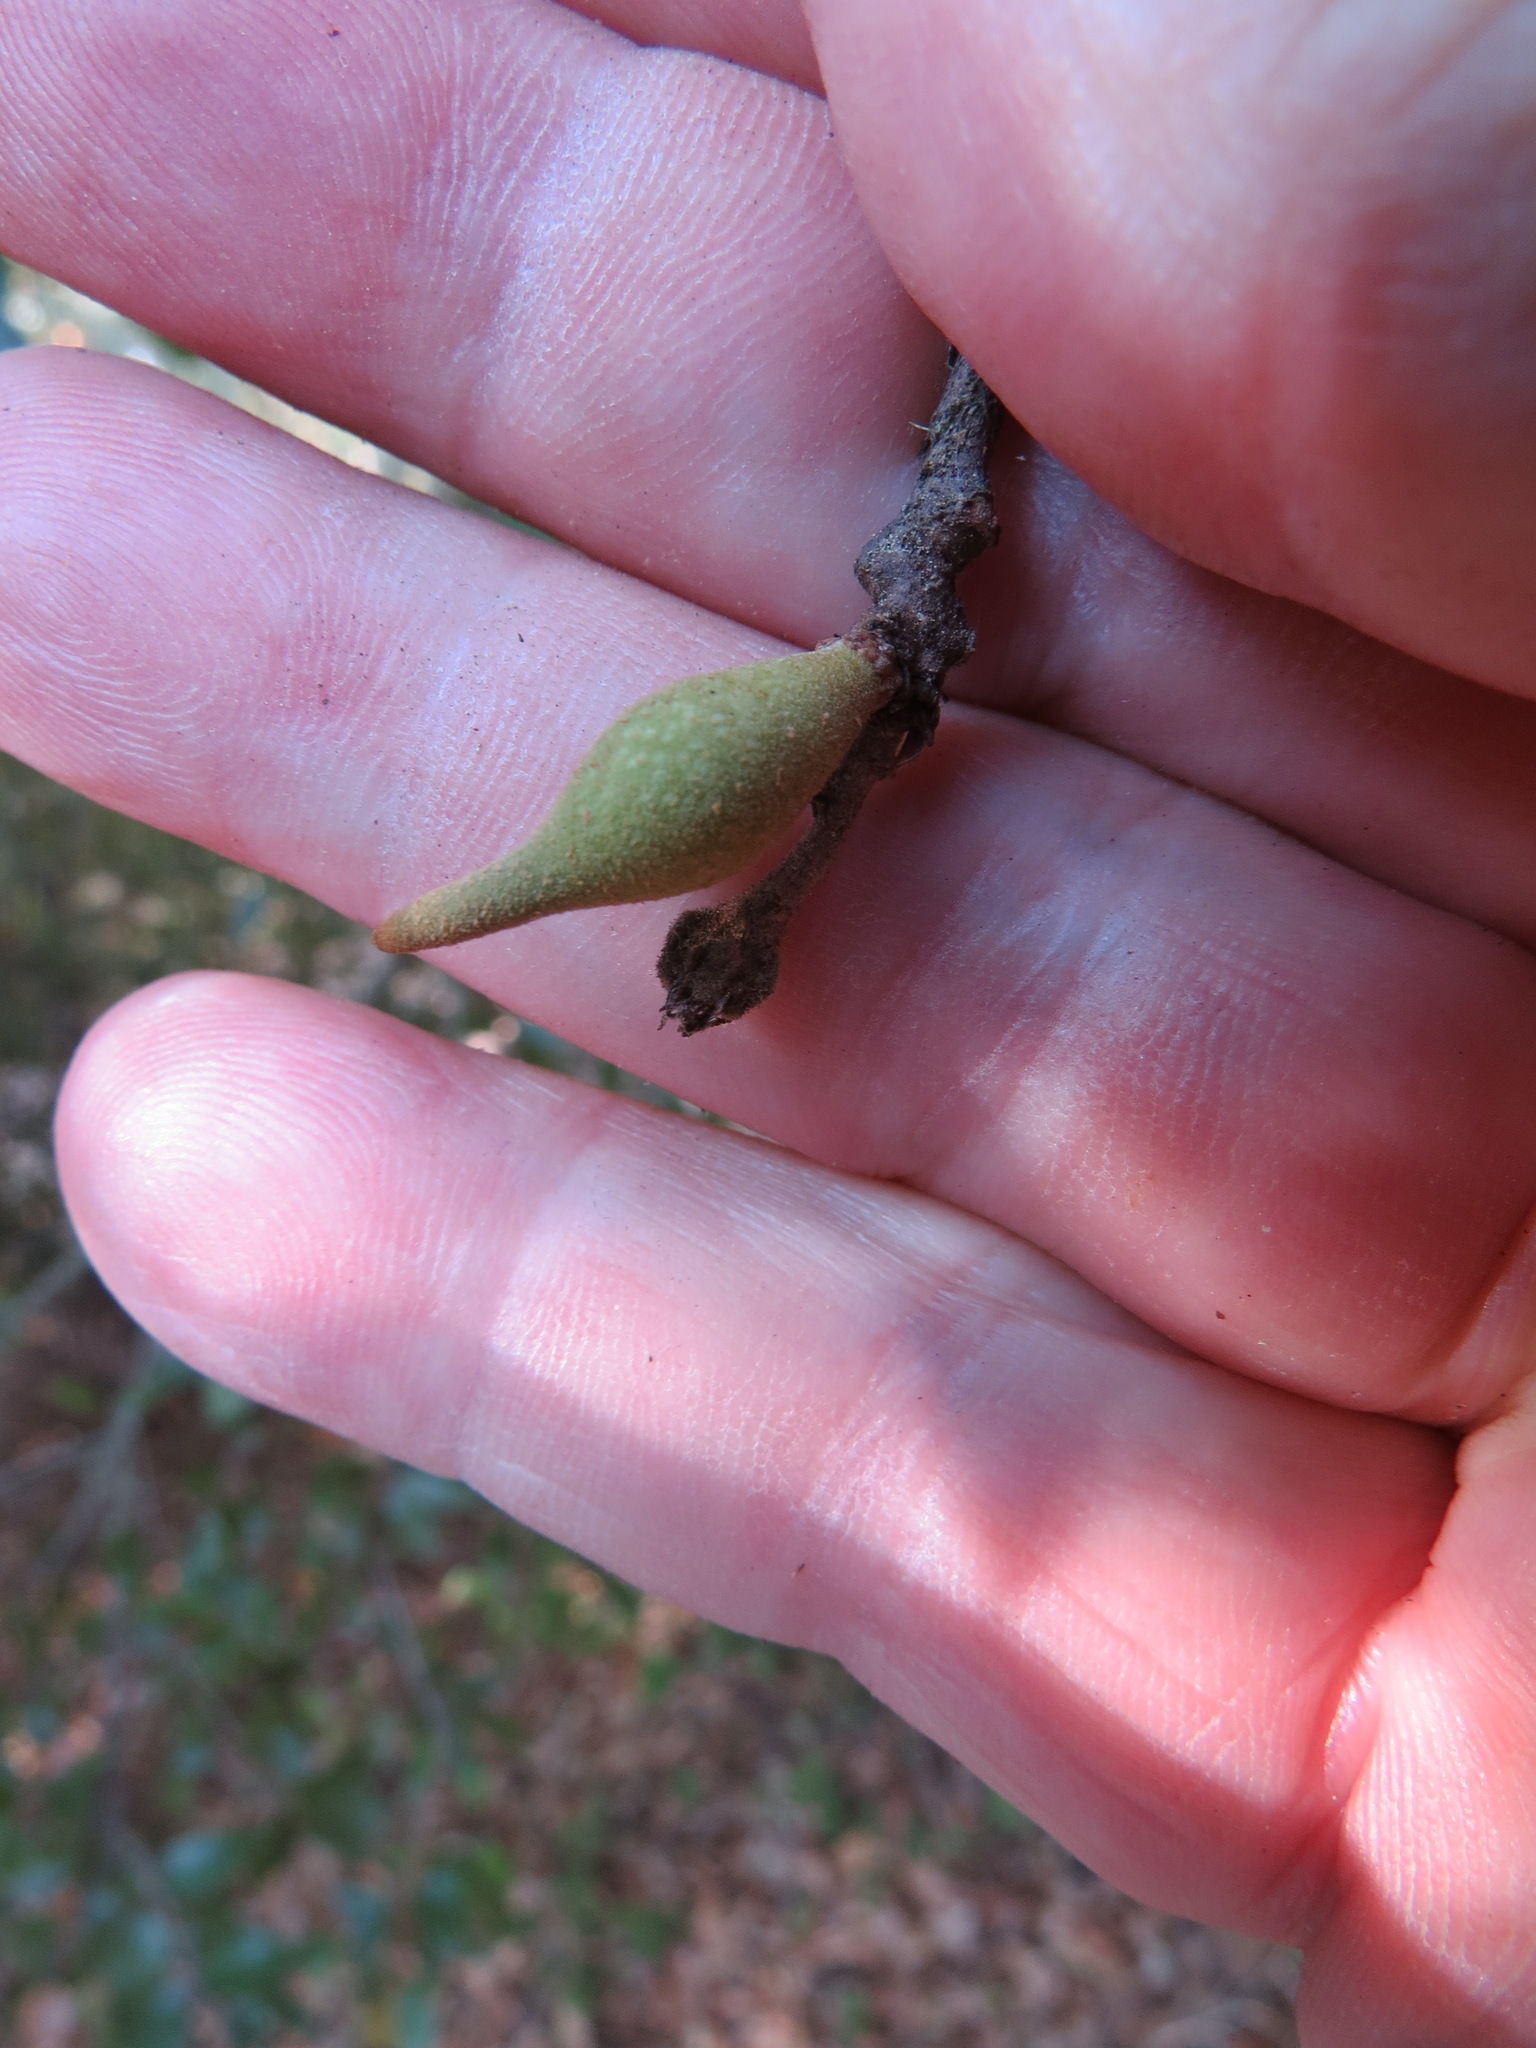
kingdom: Animalia
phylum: Arthropoda
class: Insecta
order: Hymenoptera
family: Cynipidae
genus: Heteroecus
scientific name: Heteroecus pacificus
